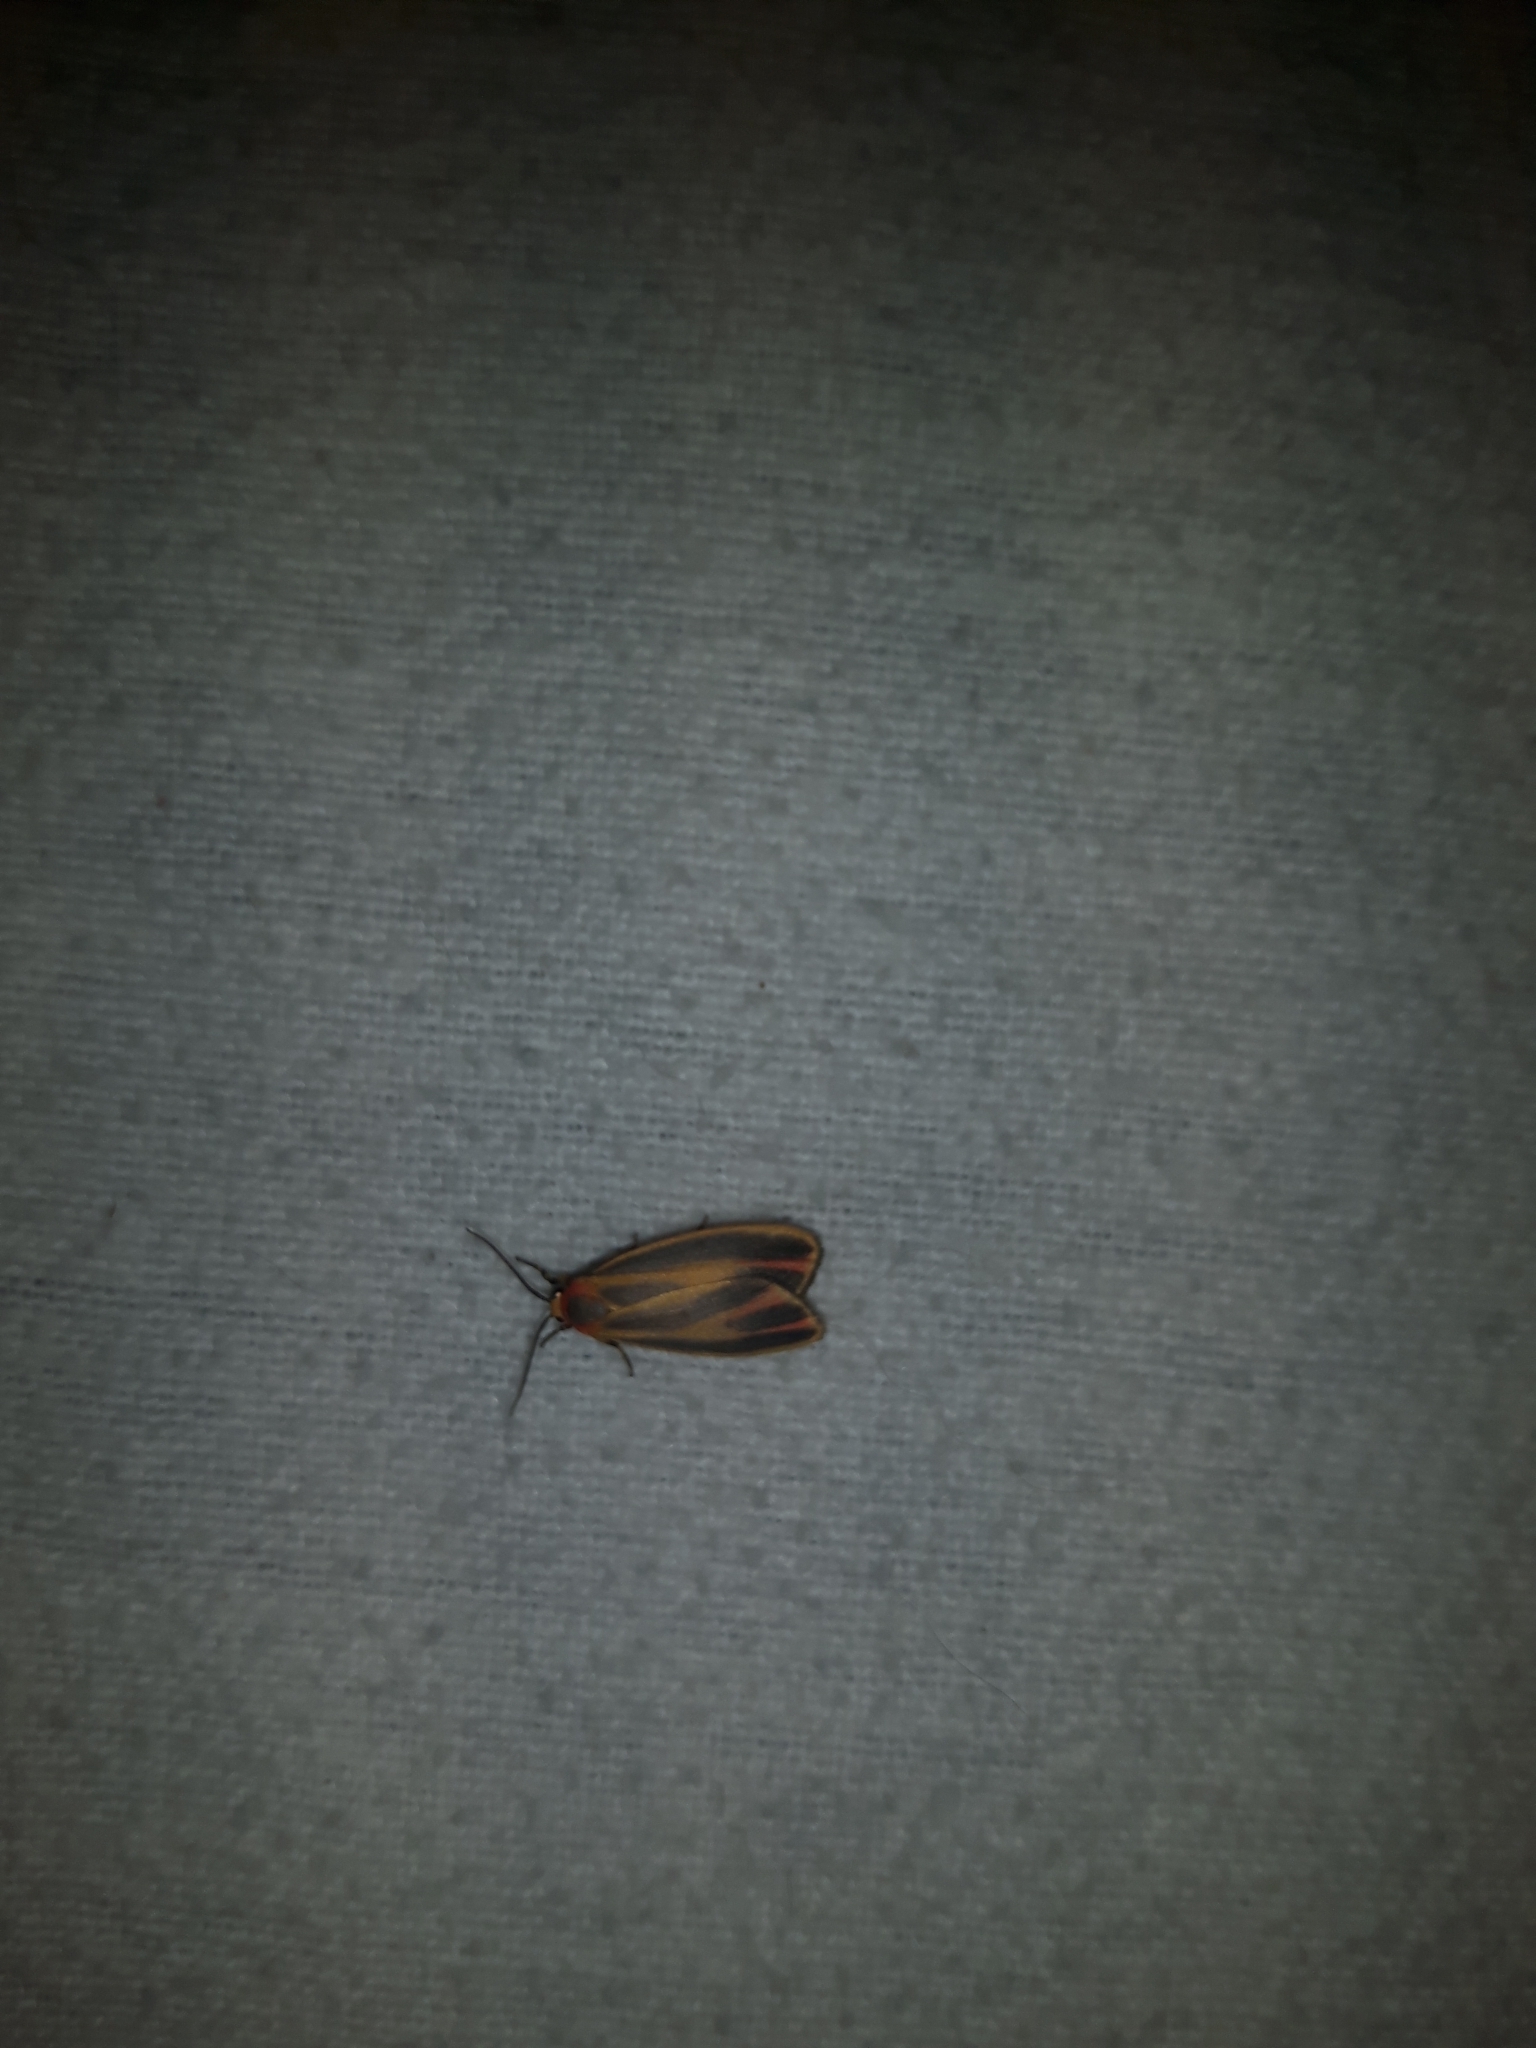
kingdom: Animalia
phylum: Arthropoda
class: Insecta
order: Lepidoptera
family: Erebidae
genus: Hypoprepia
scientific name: Hypoprepia fucosa
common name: Painted lichen moth
